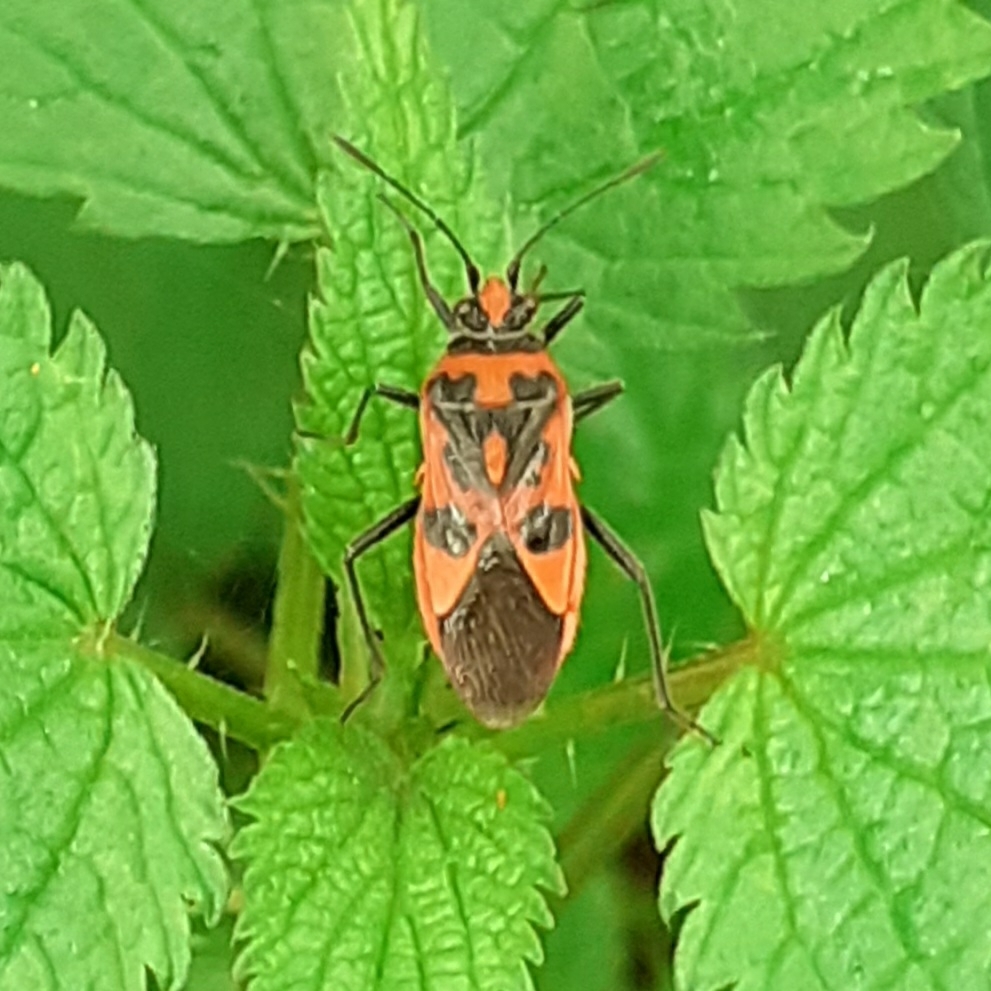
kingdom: Animalia
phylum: Arthropoda
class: Insecta
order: Hemiptera
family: Rhopalidae
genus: Corizus
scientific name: Corizus hyoscyami
